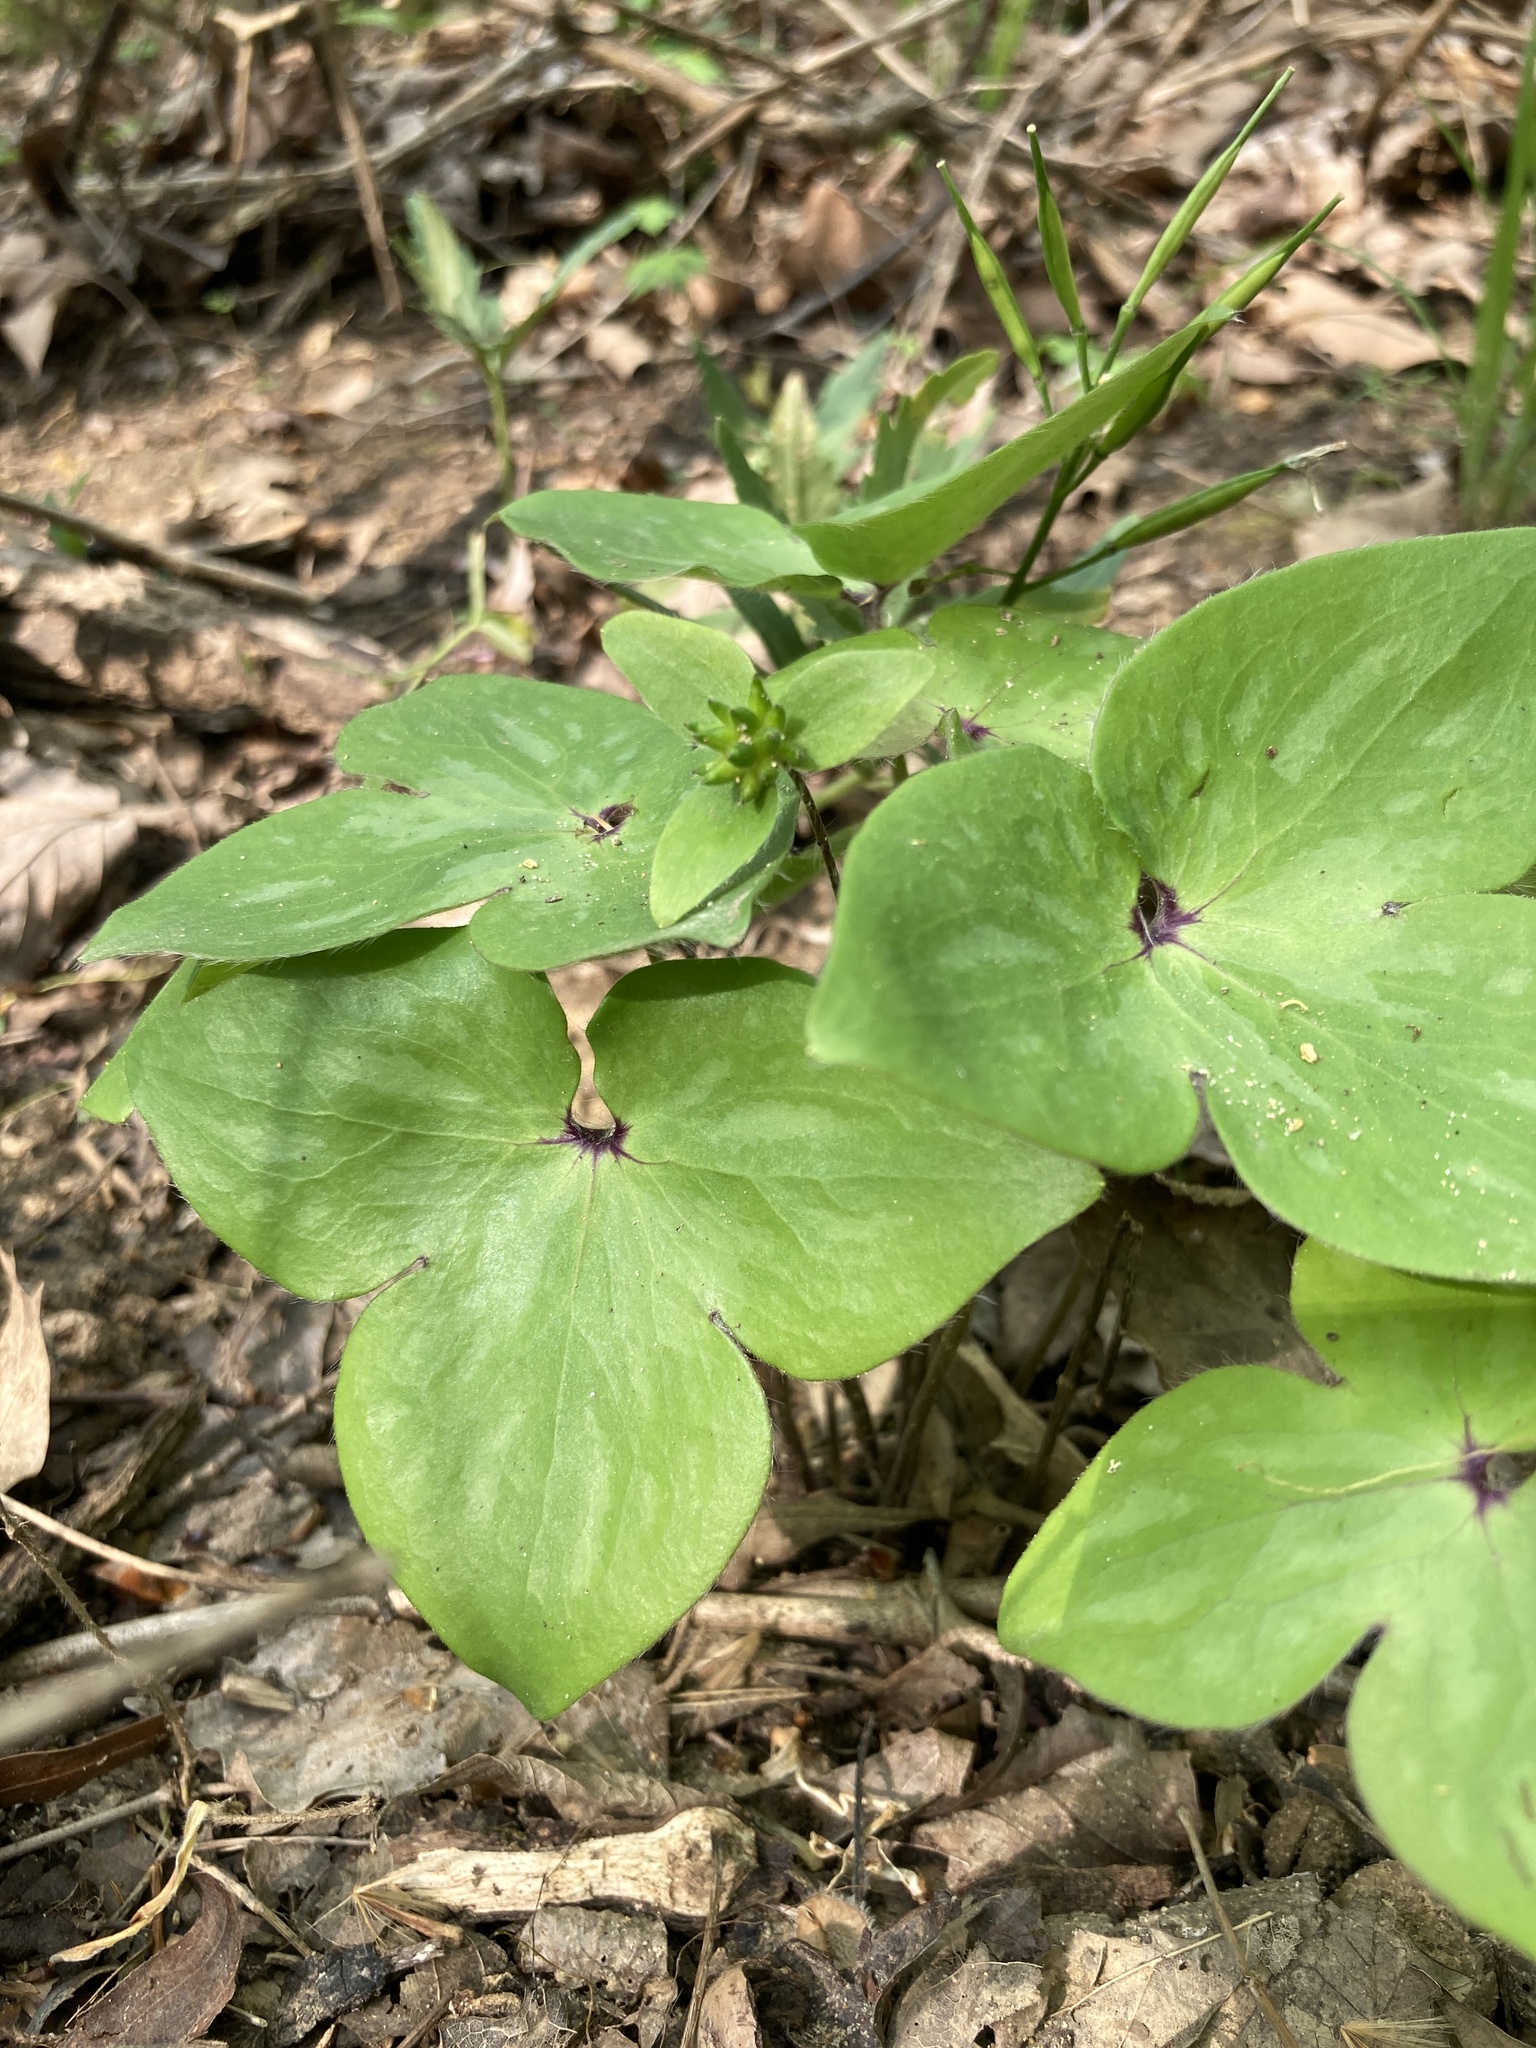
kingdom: Plantae
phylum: Tracheophyta
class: Magnoliopsida
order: Ranunculales
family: Ranunculaceae
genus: Hepatica
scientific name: Hepatica acutiloba
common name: Sharp-lobed hepatica
